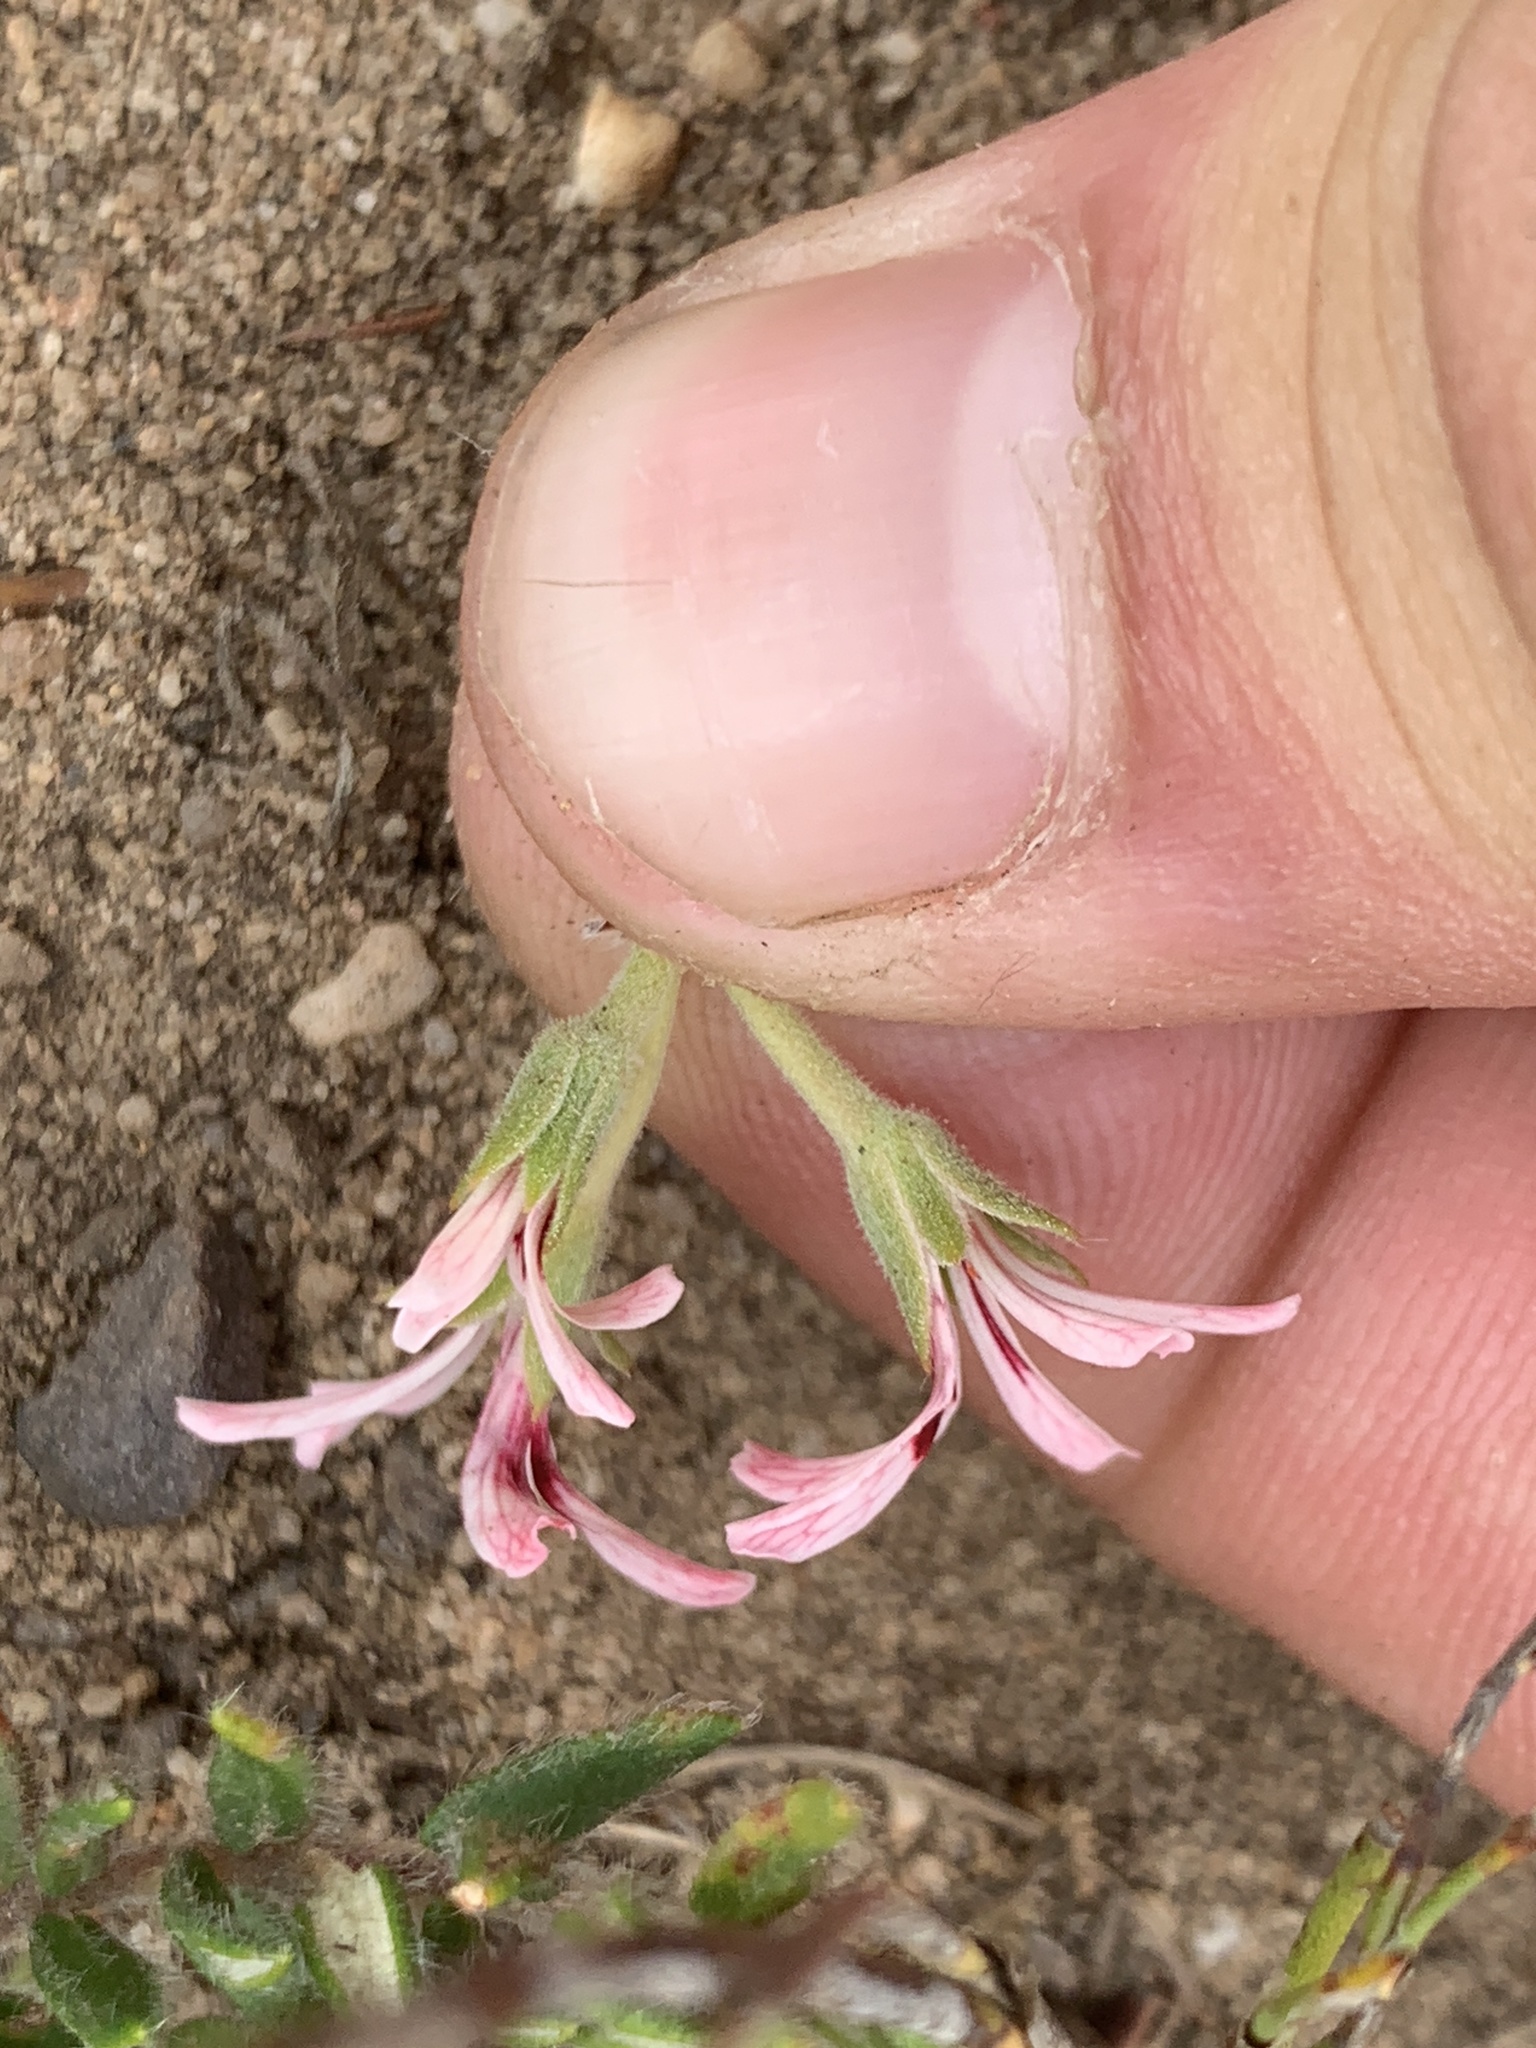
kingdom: Plantae
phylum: Tracheophyta
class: Magnoliopsida
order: Geraniales
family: Geraniaceae
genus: Pelargonium
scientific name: Pelargonium pinnatum
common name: Pinnated pelargonium
